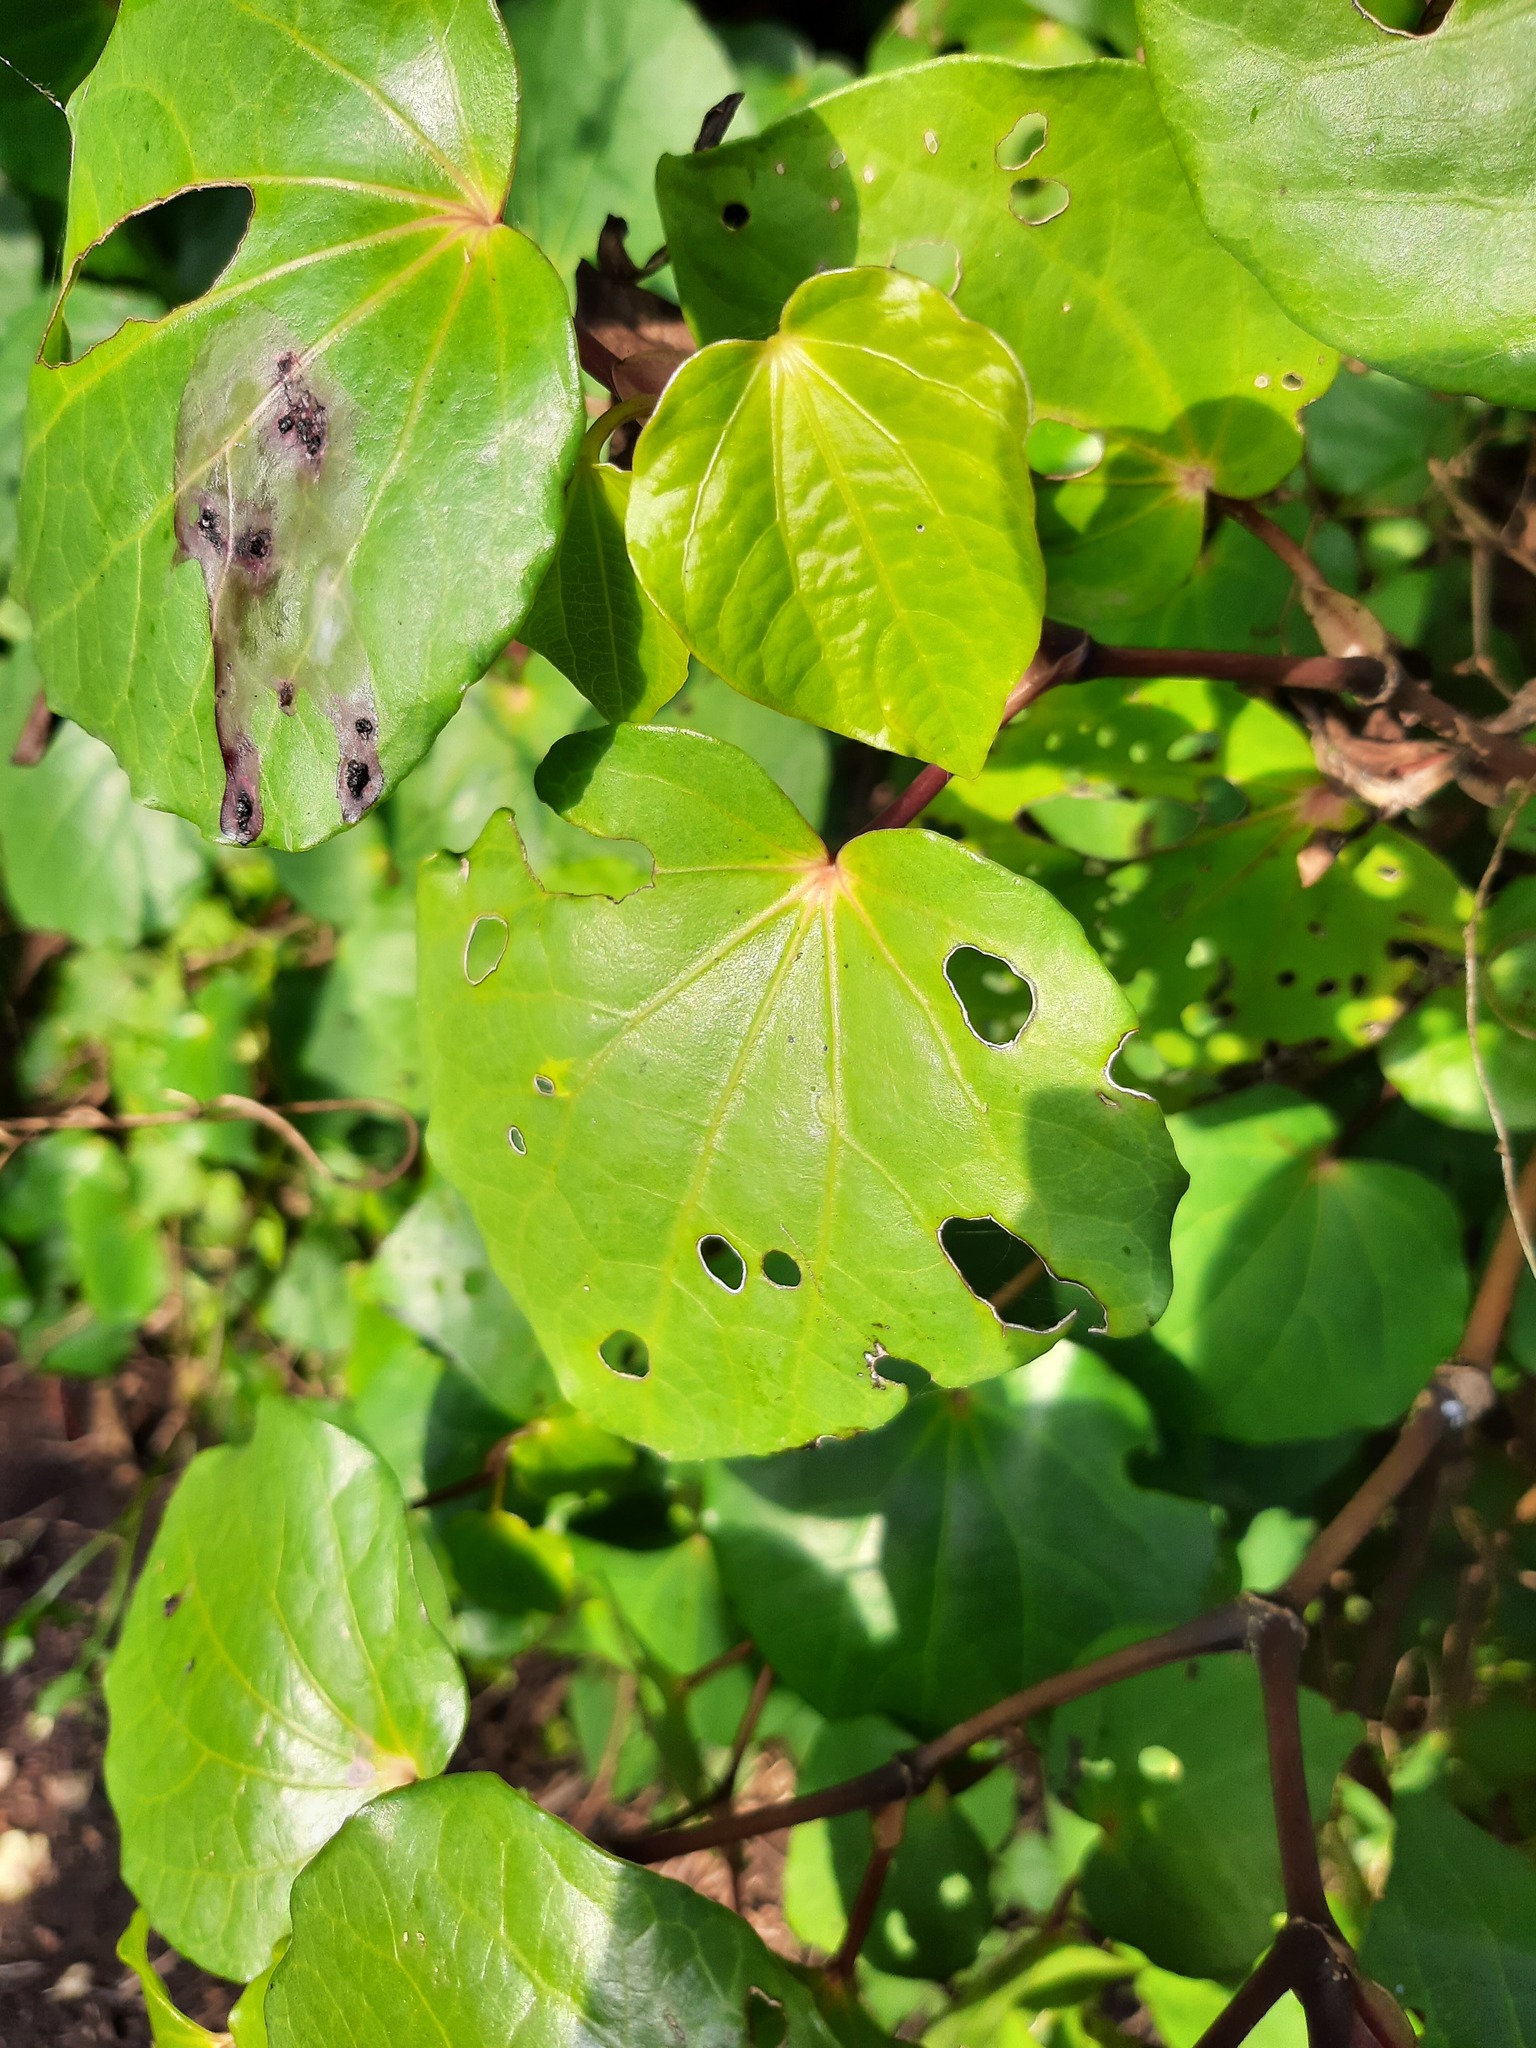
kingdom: Plantae
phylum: Tracheophyta
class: Magnoliopsida
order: Piperales
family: Piperaceae
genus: Macropiper
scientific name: Macropiper excelsum
